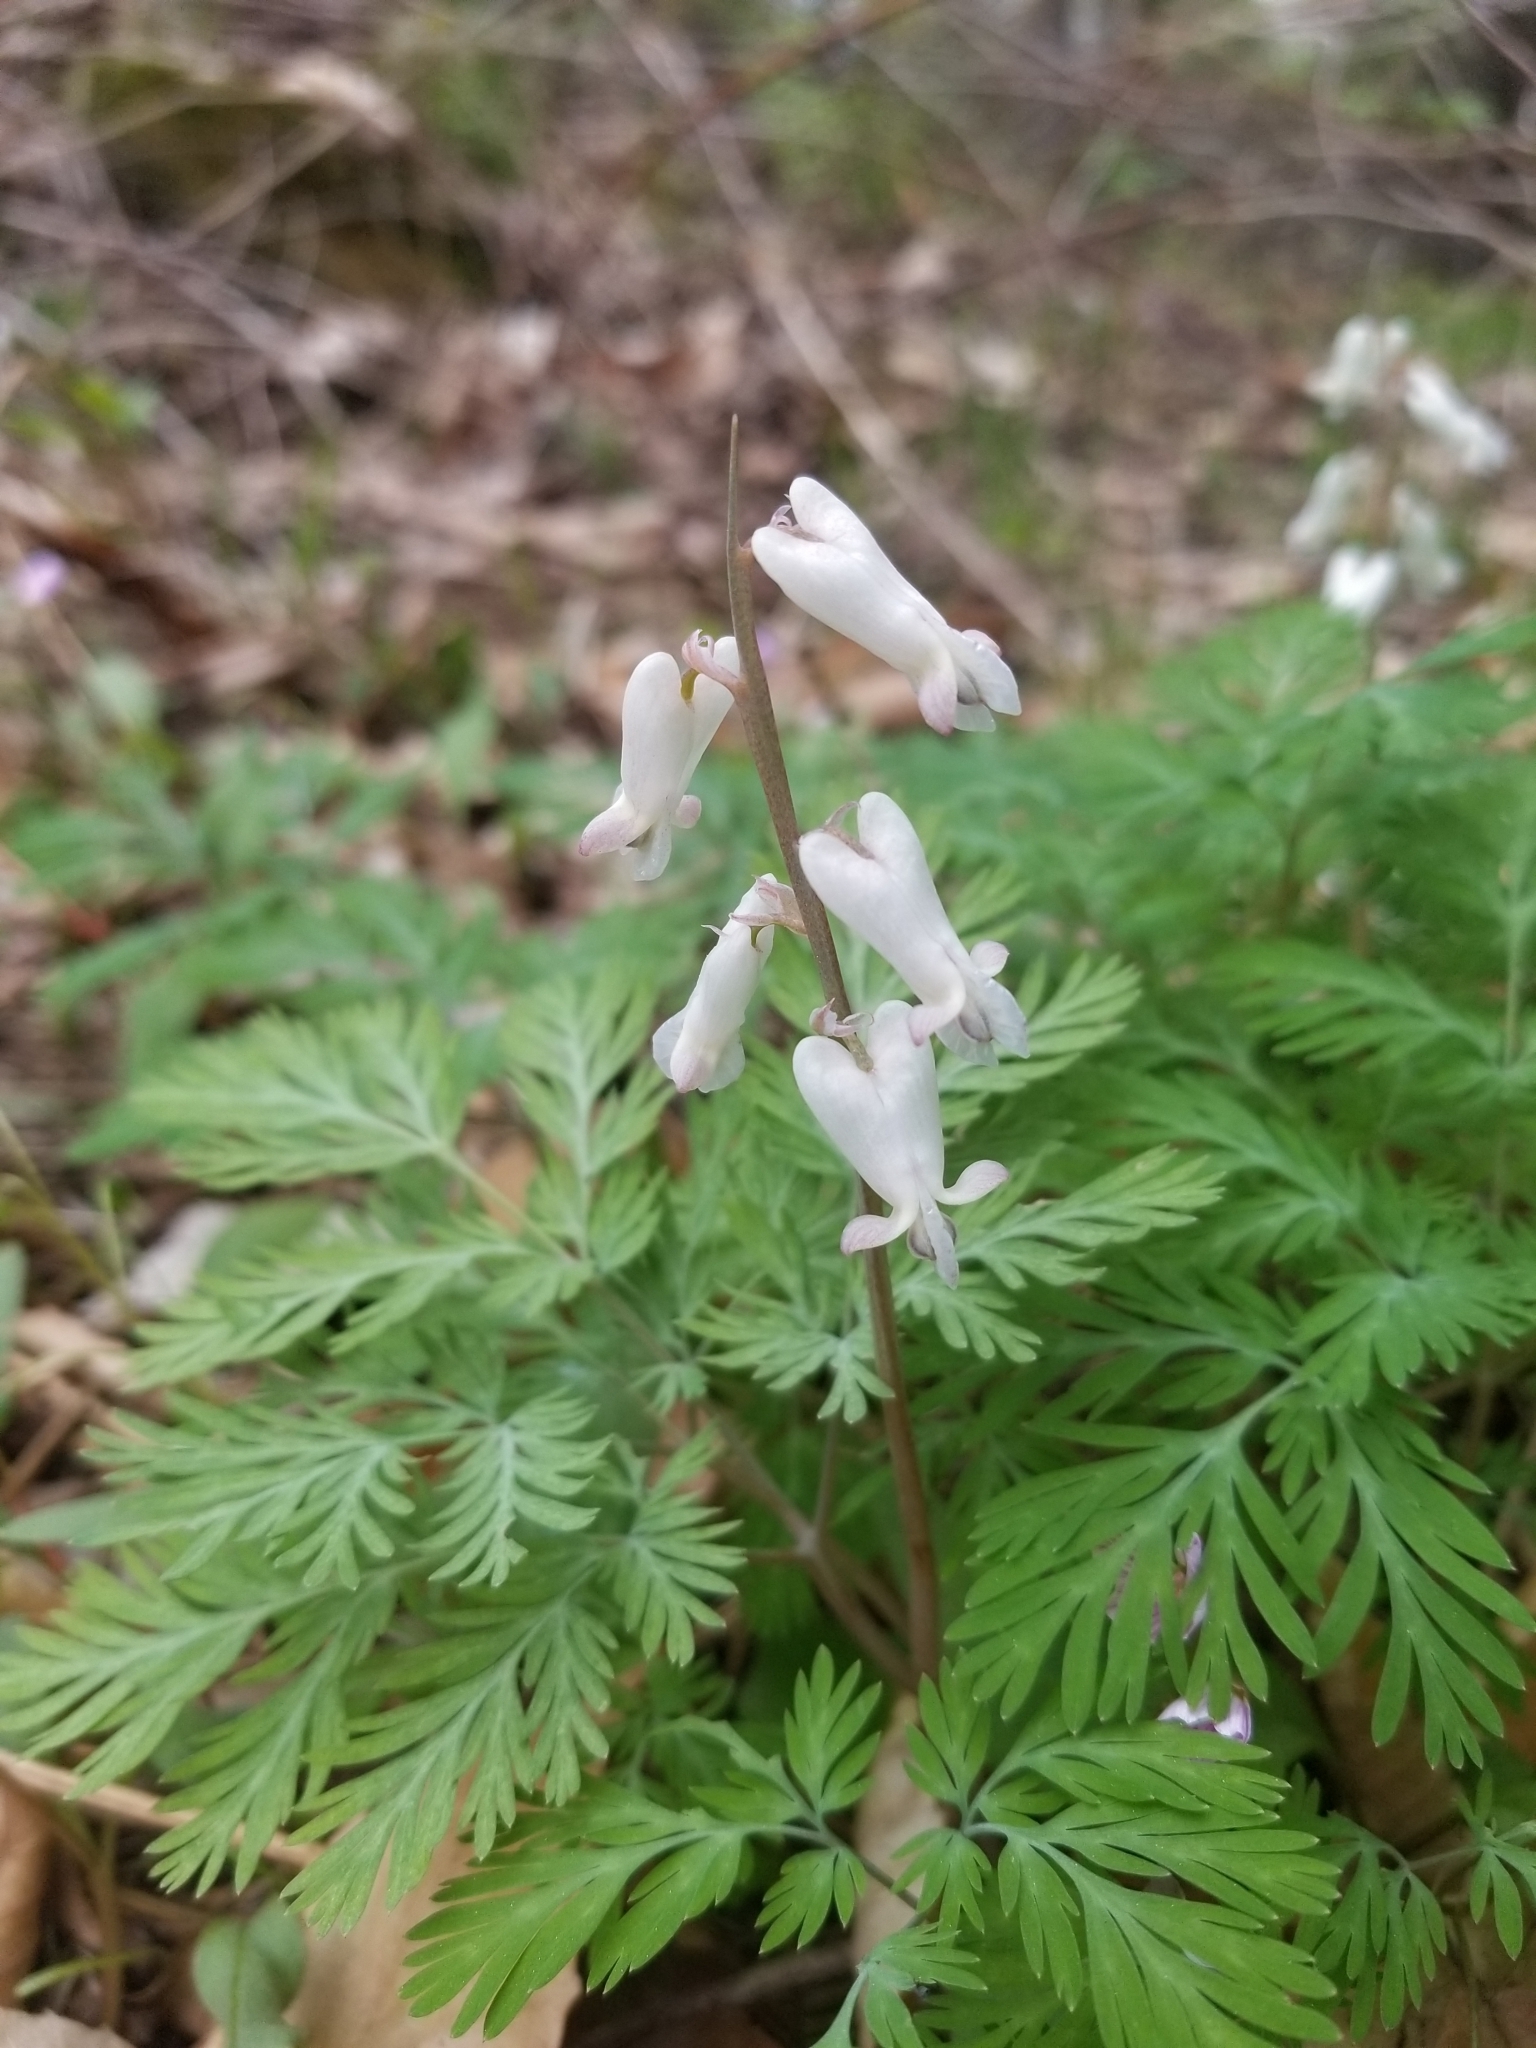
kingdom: Plantae
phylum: Tracheophyta
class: Magnoliopsida
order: Ranunculales
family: Papaveraceae
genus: Dicentra
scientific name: Dicentra canadensis
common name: Squirrel-corn
